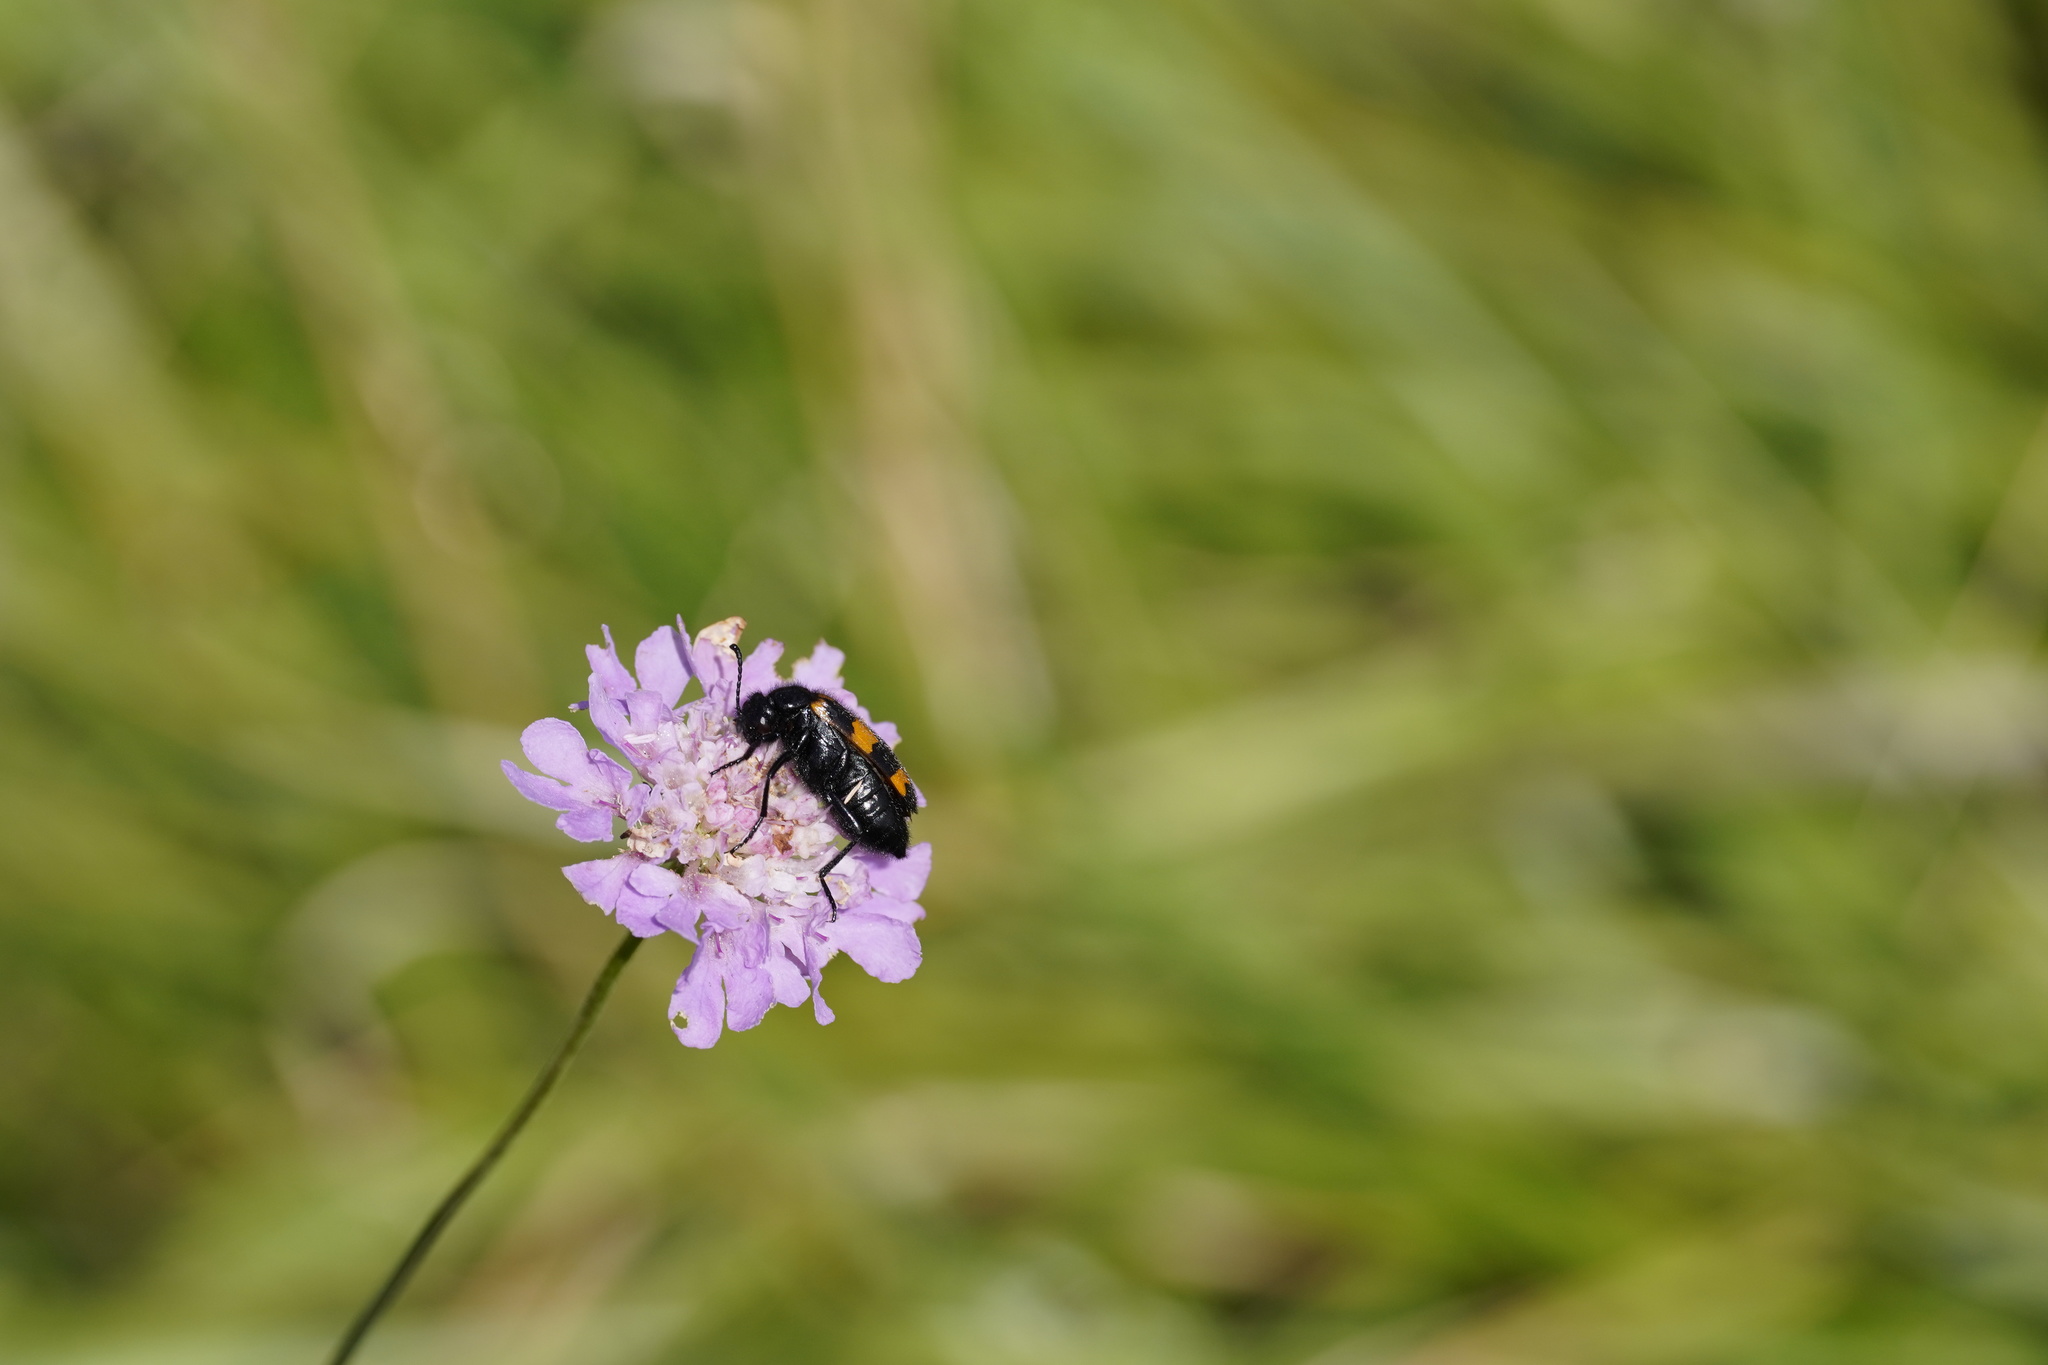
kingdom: Animalia
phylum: Arthropoda
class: Insecta
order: Coleoptera
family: Meloidae
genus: Mylabris
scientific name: Mylabris variabilis
